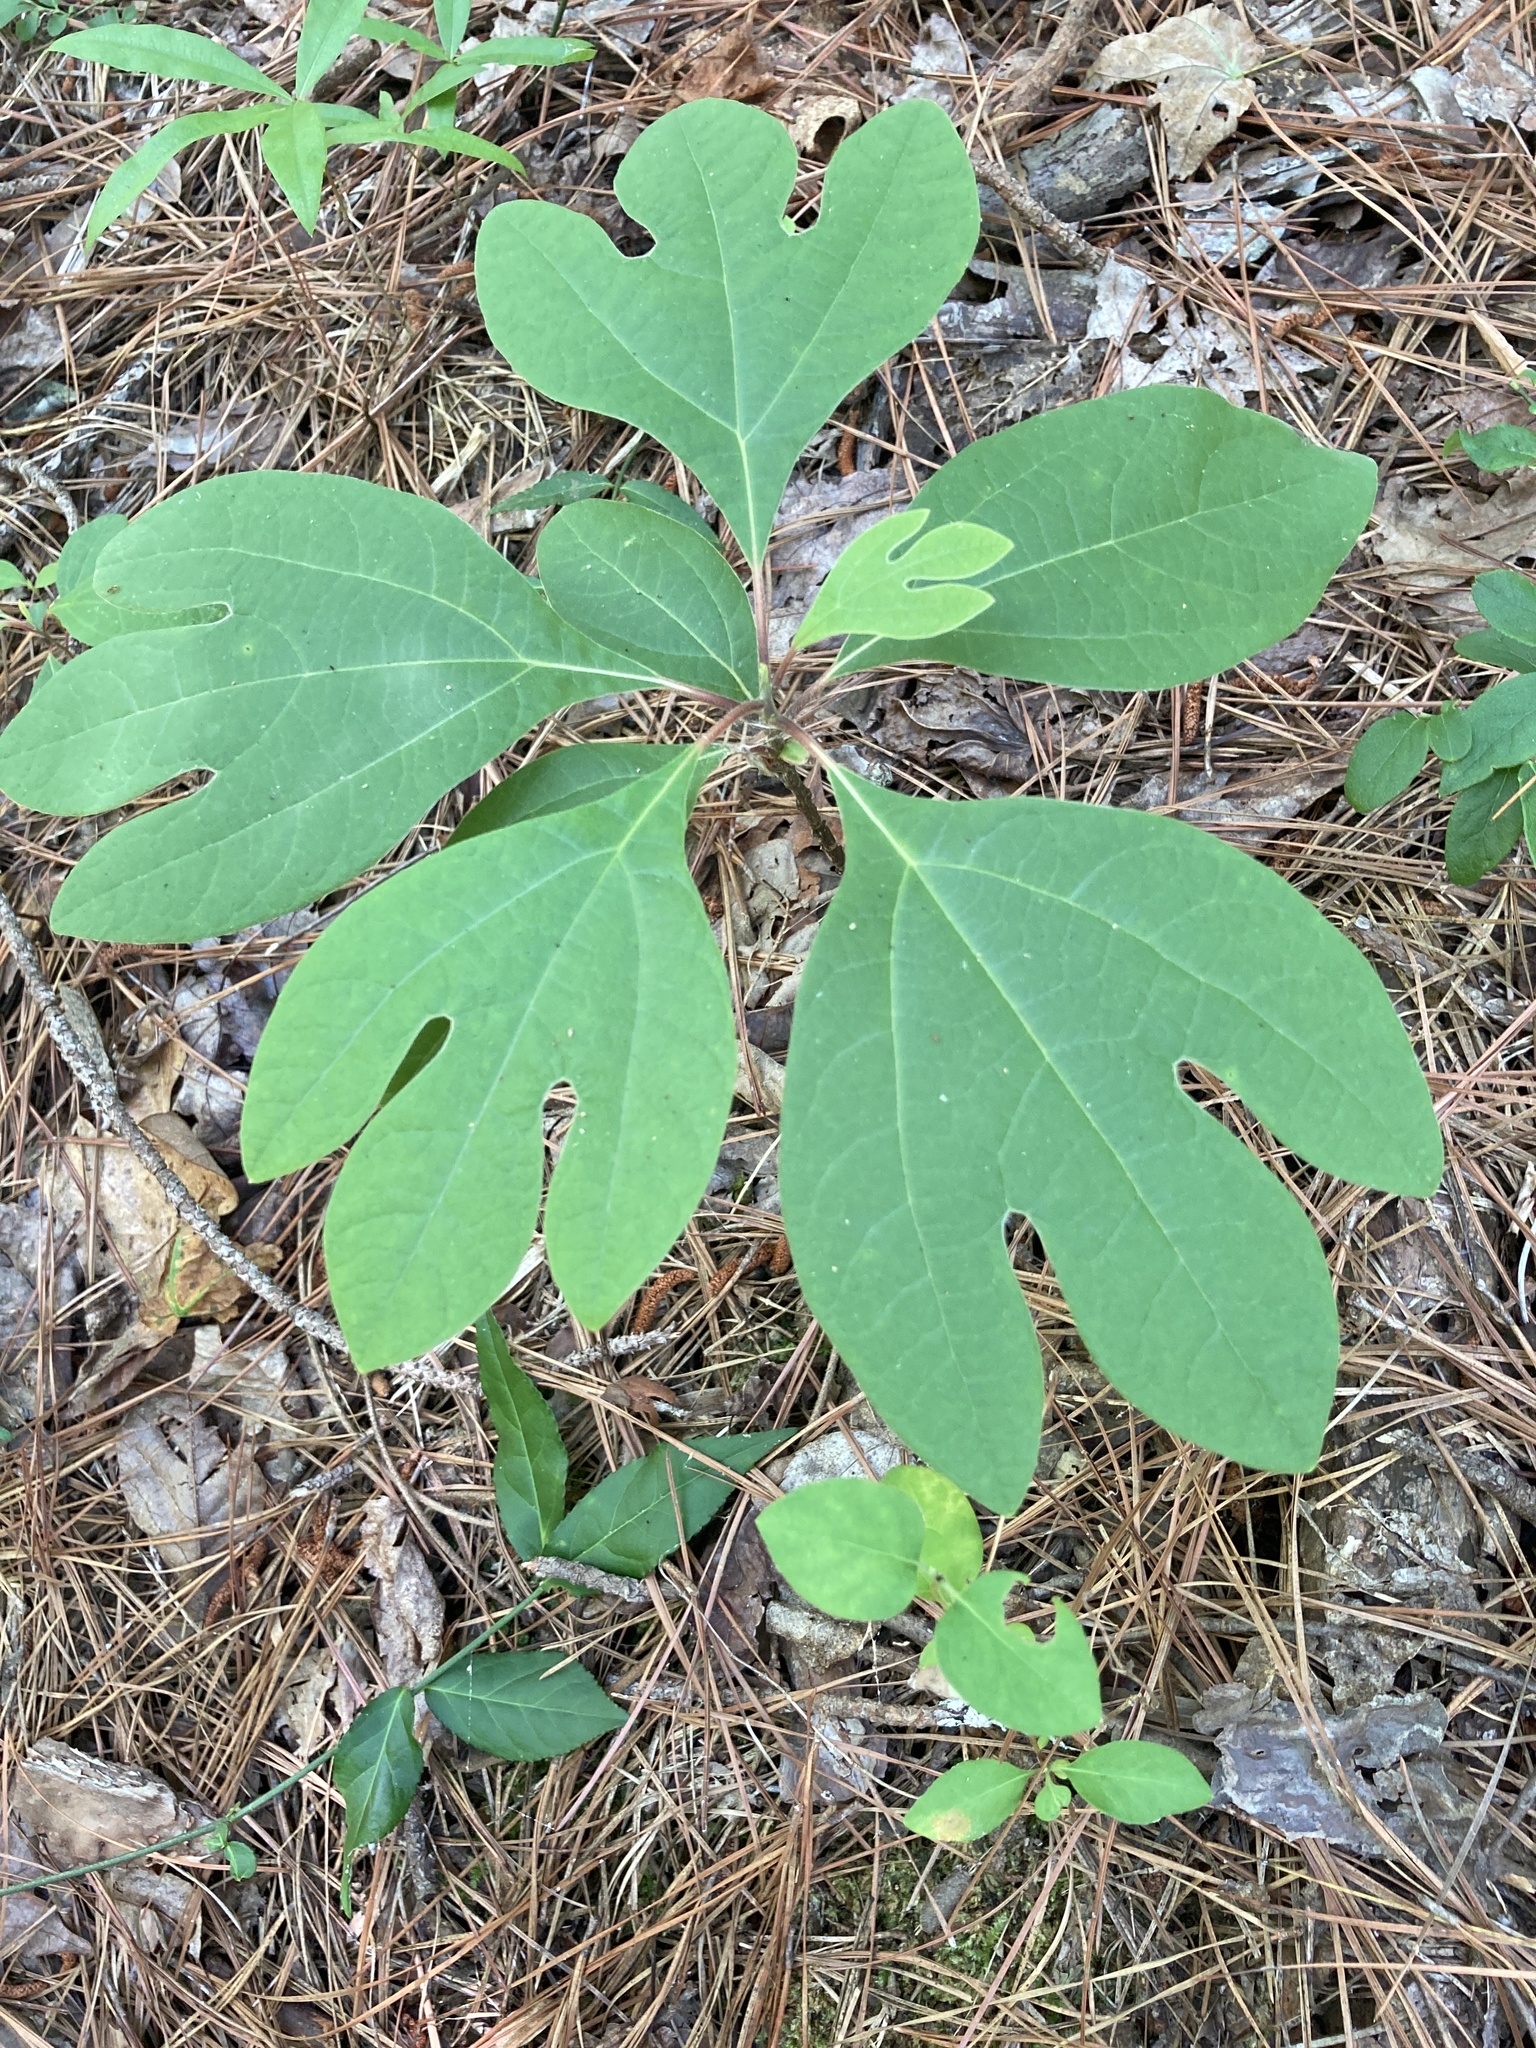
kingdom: Plantae
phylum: Tracheophyta
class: Magnoliopsida
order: Laurales
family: Lauraceae
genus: Sassafras
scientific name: Sassafras albidum
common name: Sassafras
